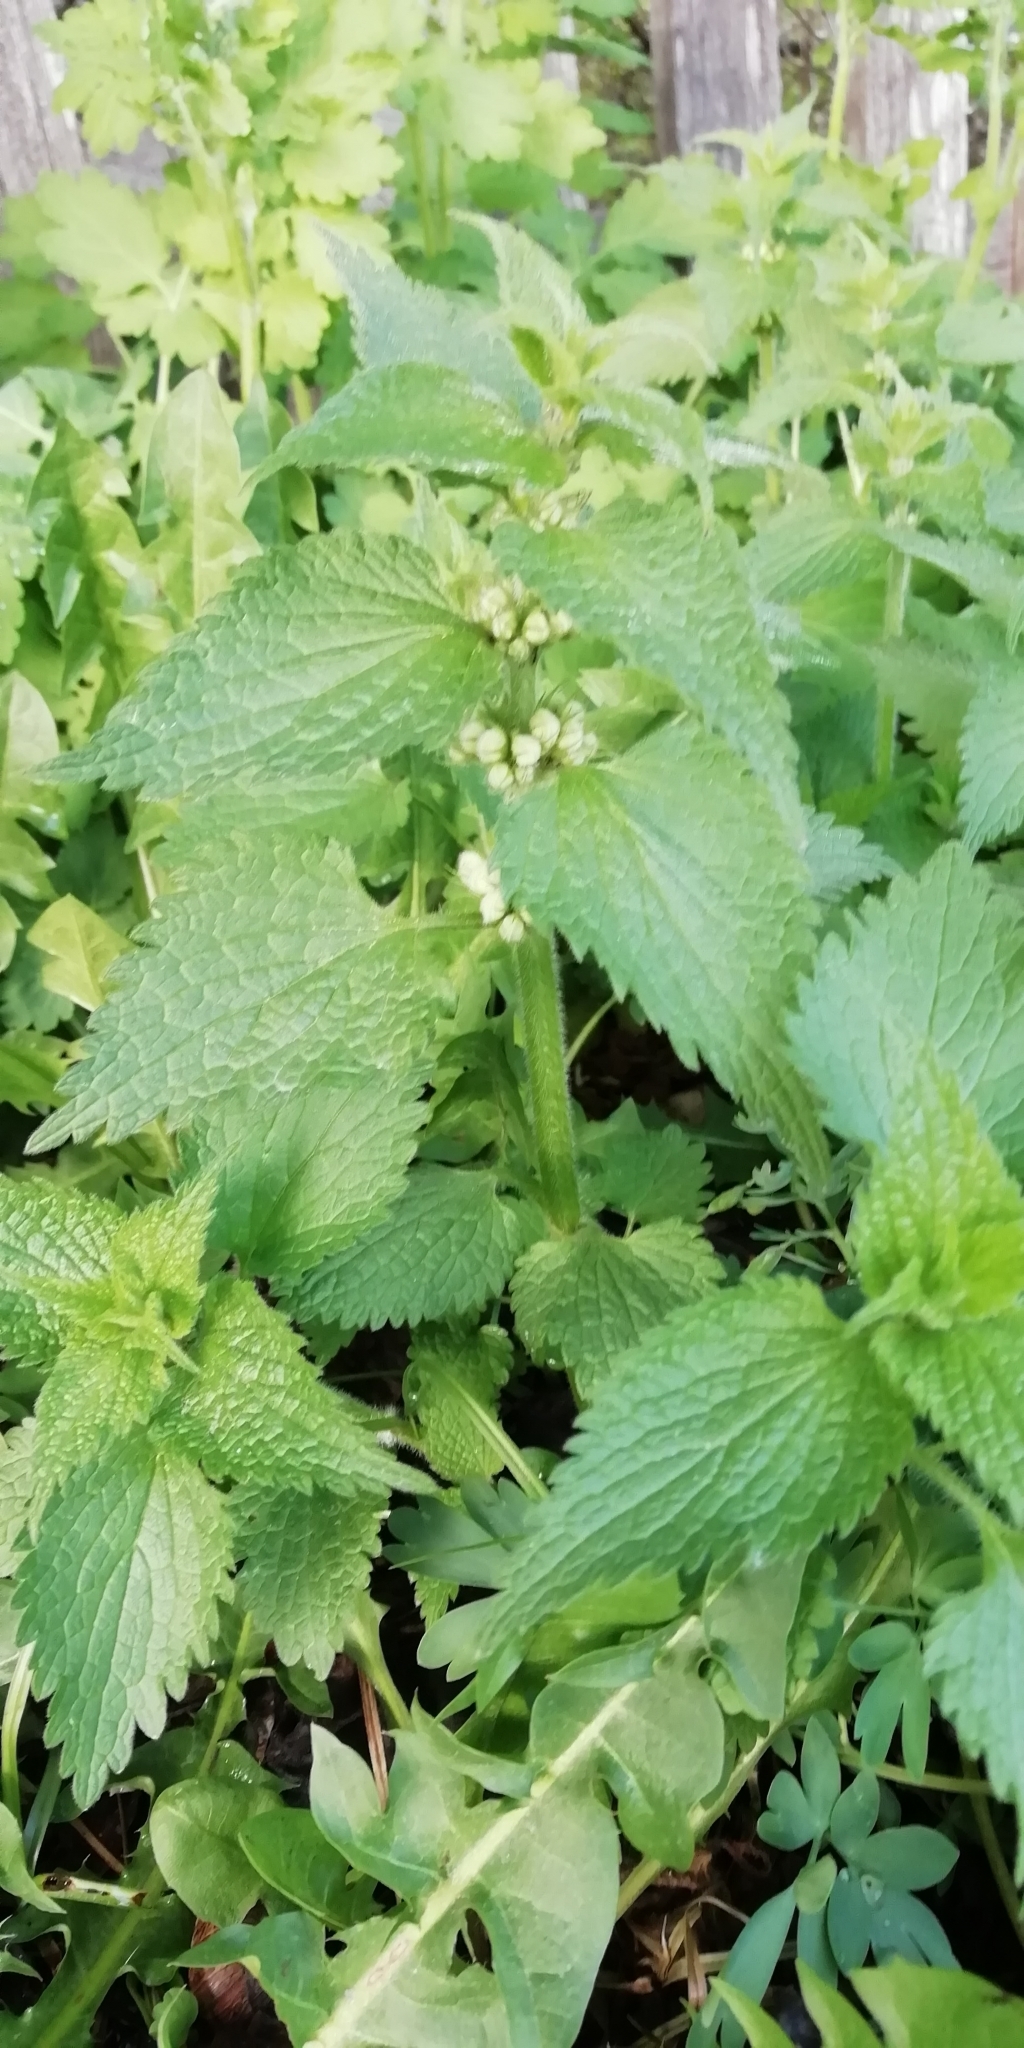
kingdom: Plantae
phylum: Tracheophyta
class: Magnoliopsida
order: Lamiales
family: Lamiaceae
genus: Lamium
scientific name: Lamium album
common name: White dead-nettle
